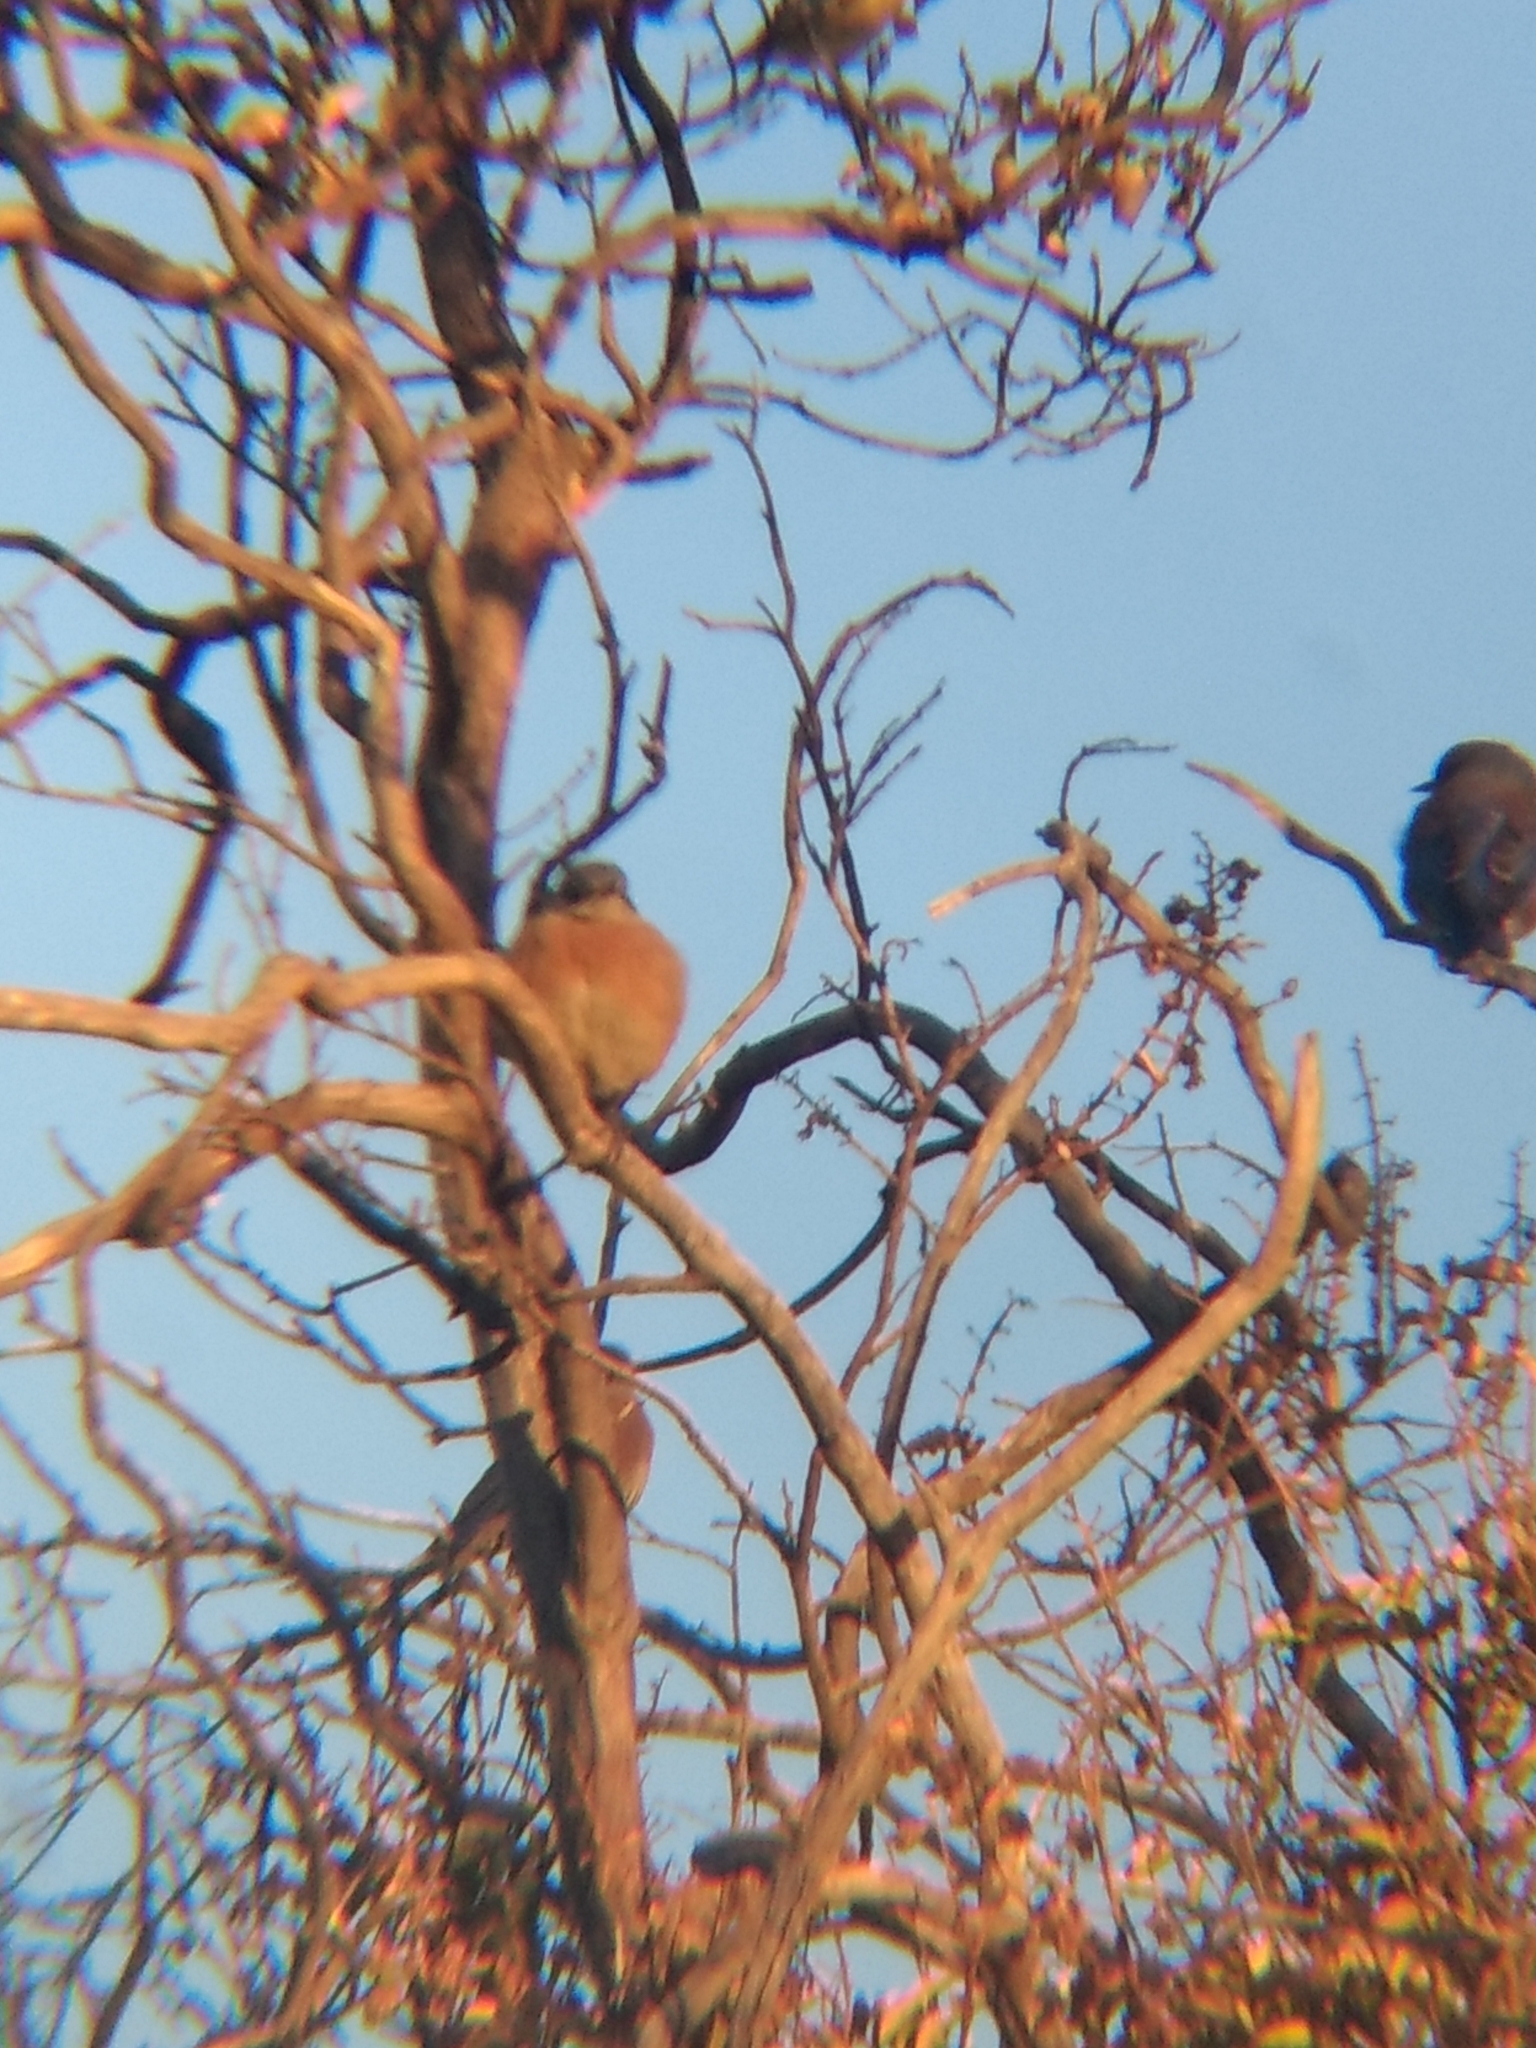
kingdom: Animalia
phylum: Chordata
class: Aves
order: Passeriformes
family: Turdidae
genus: Sialia
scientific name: Sialia mexicana
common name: Western bluebird
